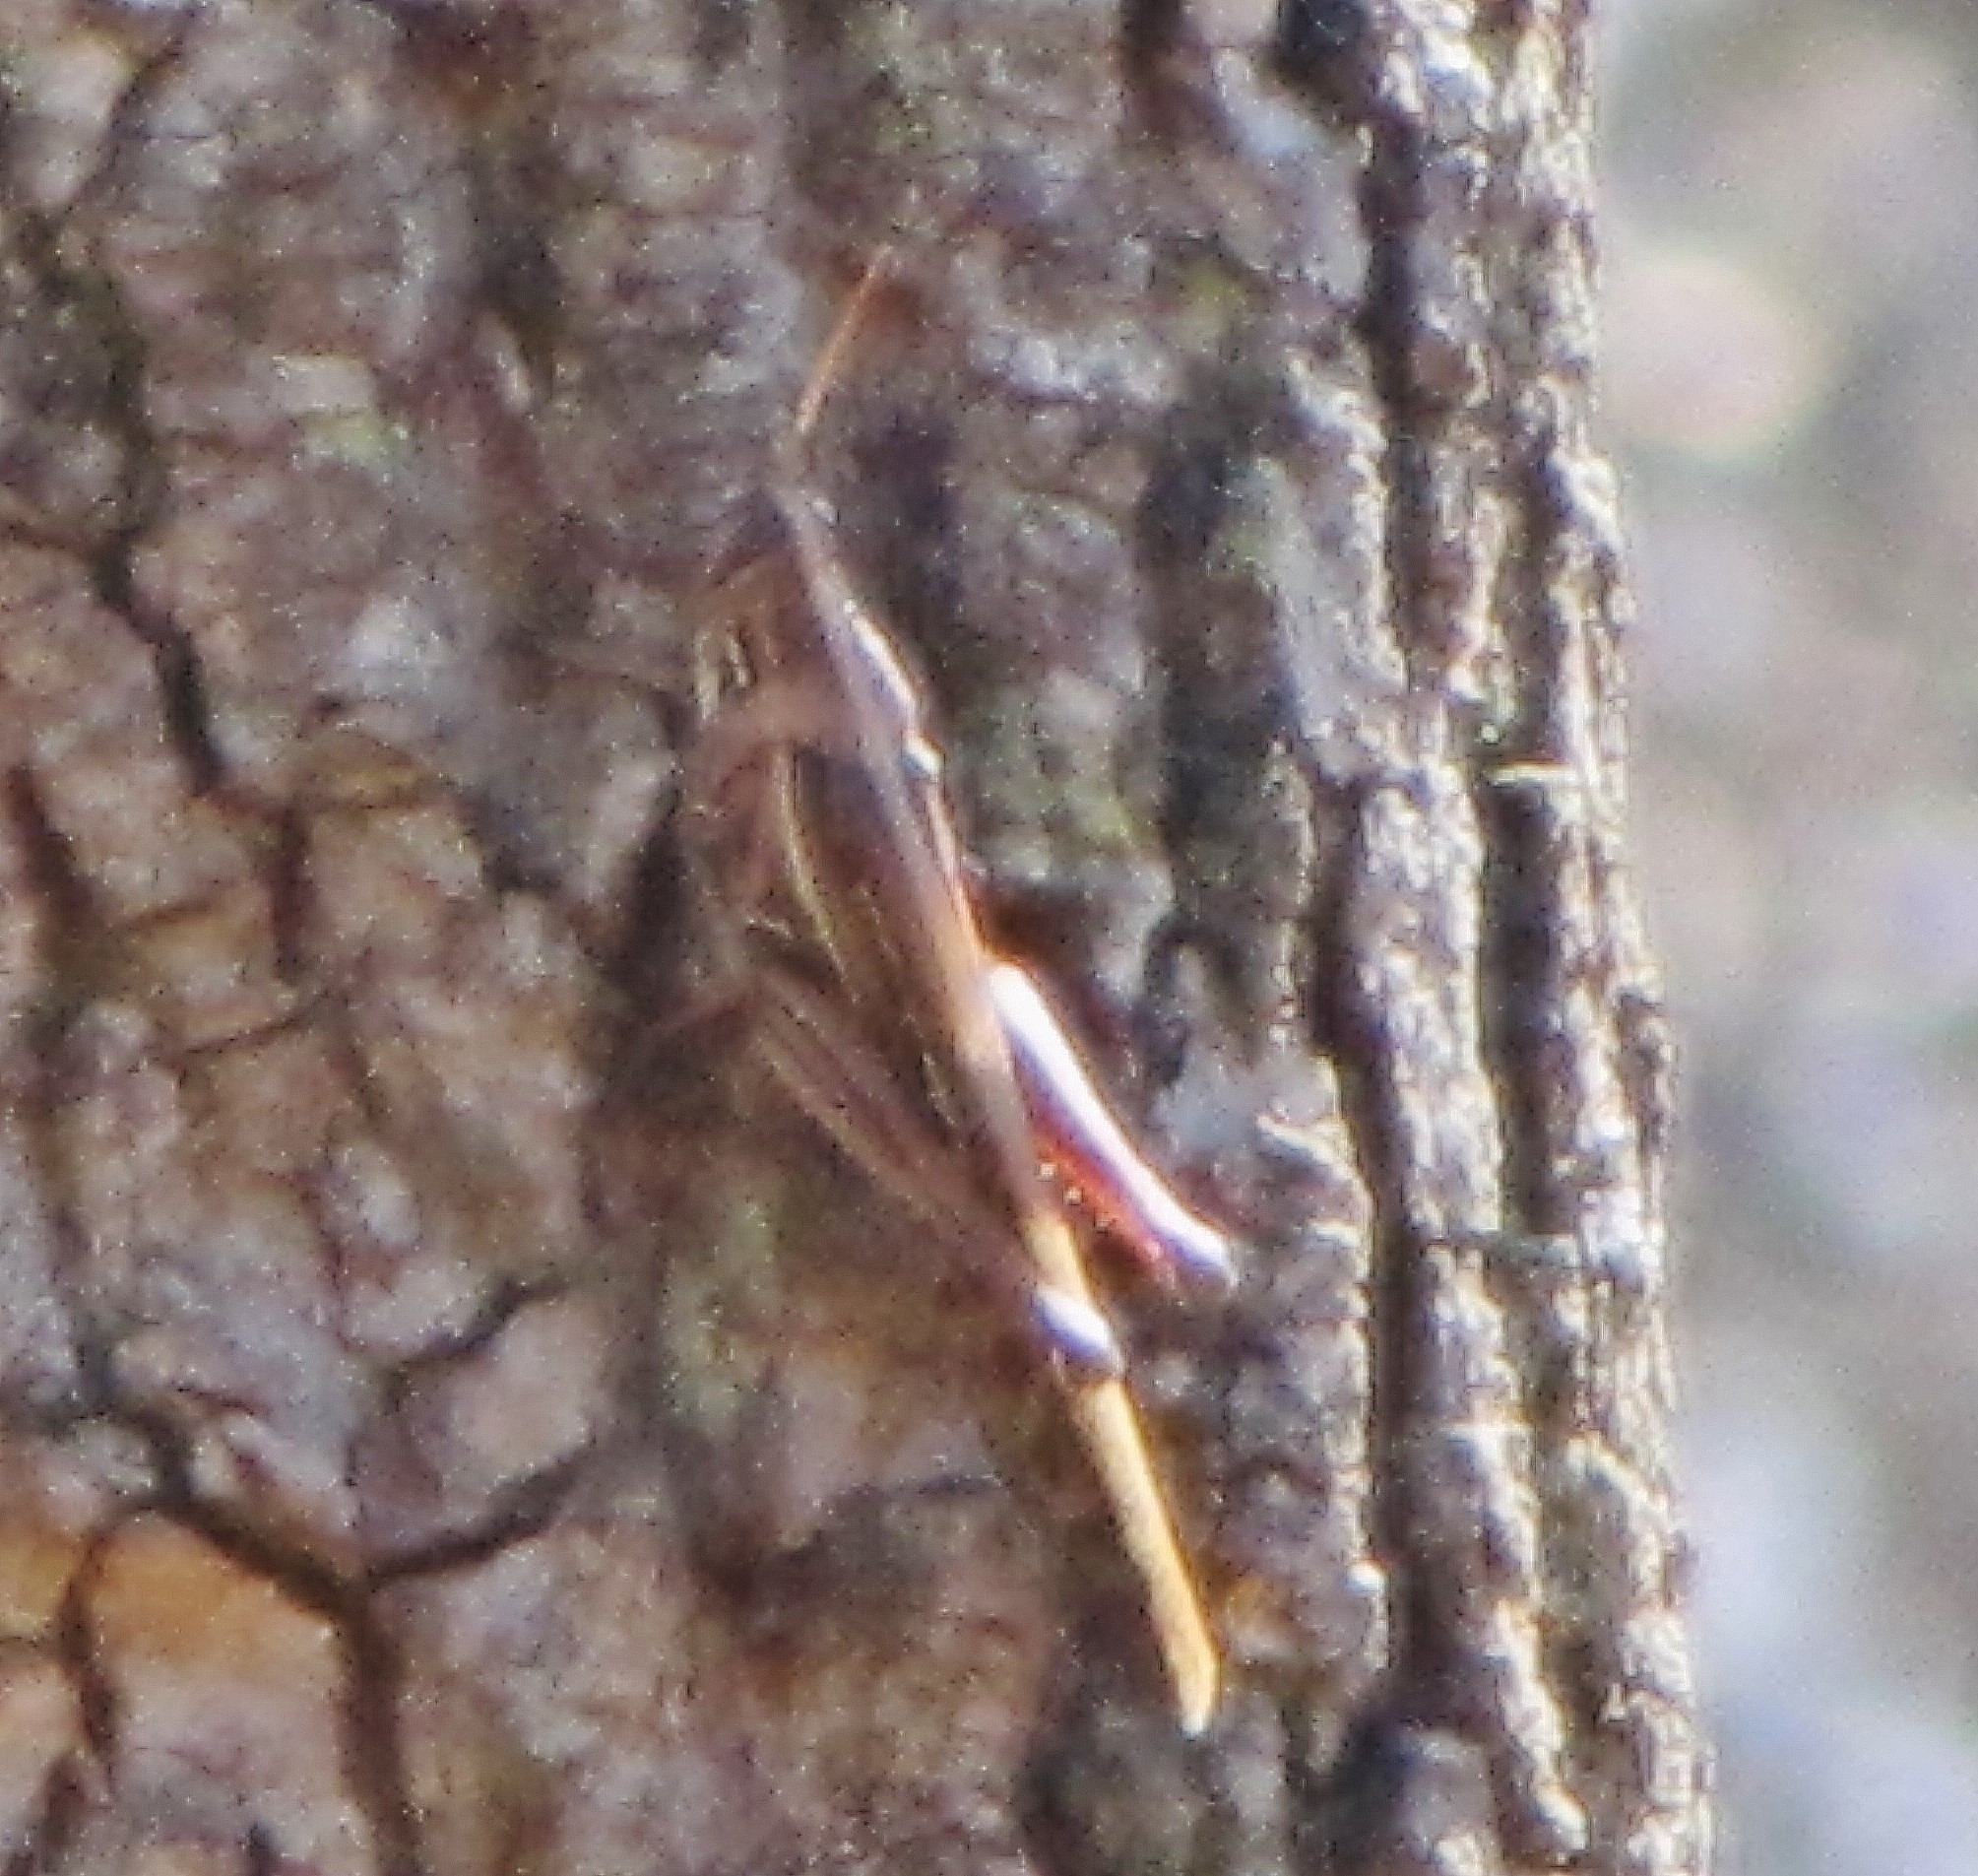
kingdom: Animalia
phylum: Arthropoda
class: Insecta
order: Orthoptera
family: Acrididae
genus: Schistocerca
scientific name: Schistocerca americana
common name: American bird locust
